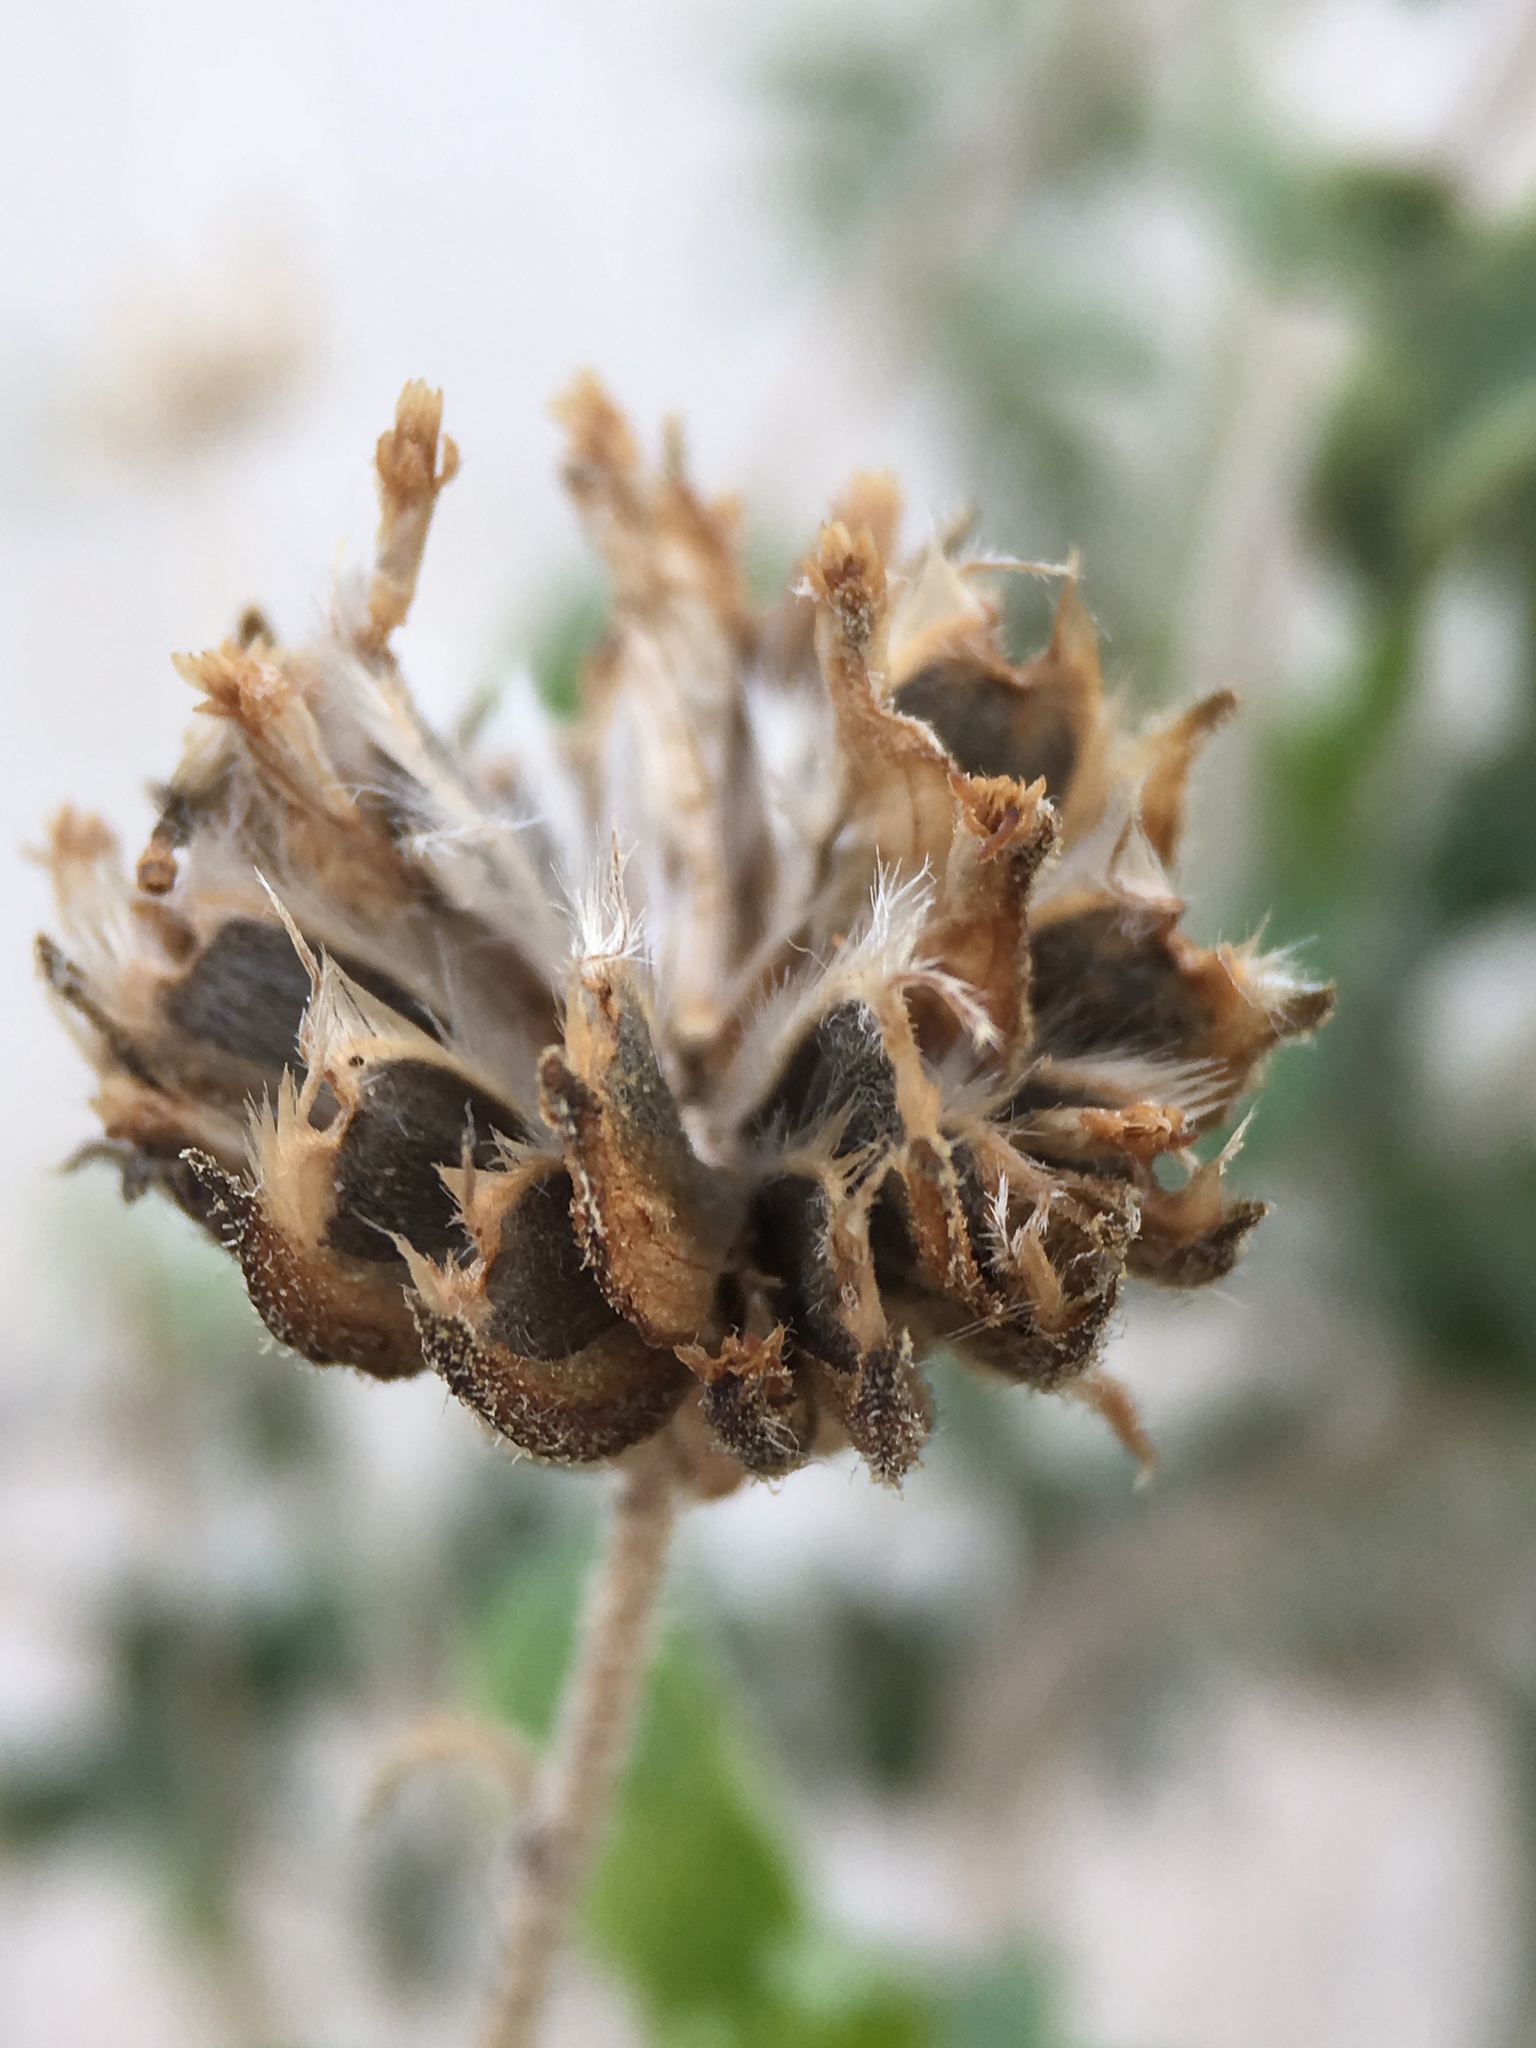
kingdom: Plantae
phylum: Tracheophyta
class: Magnoliopsida
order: Asterales
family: Asteraceae
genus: Encelia
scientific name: Encelia frutescens
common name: Bush encelia
